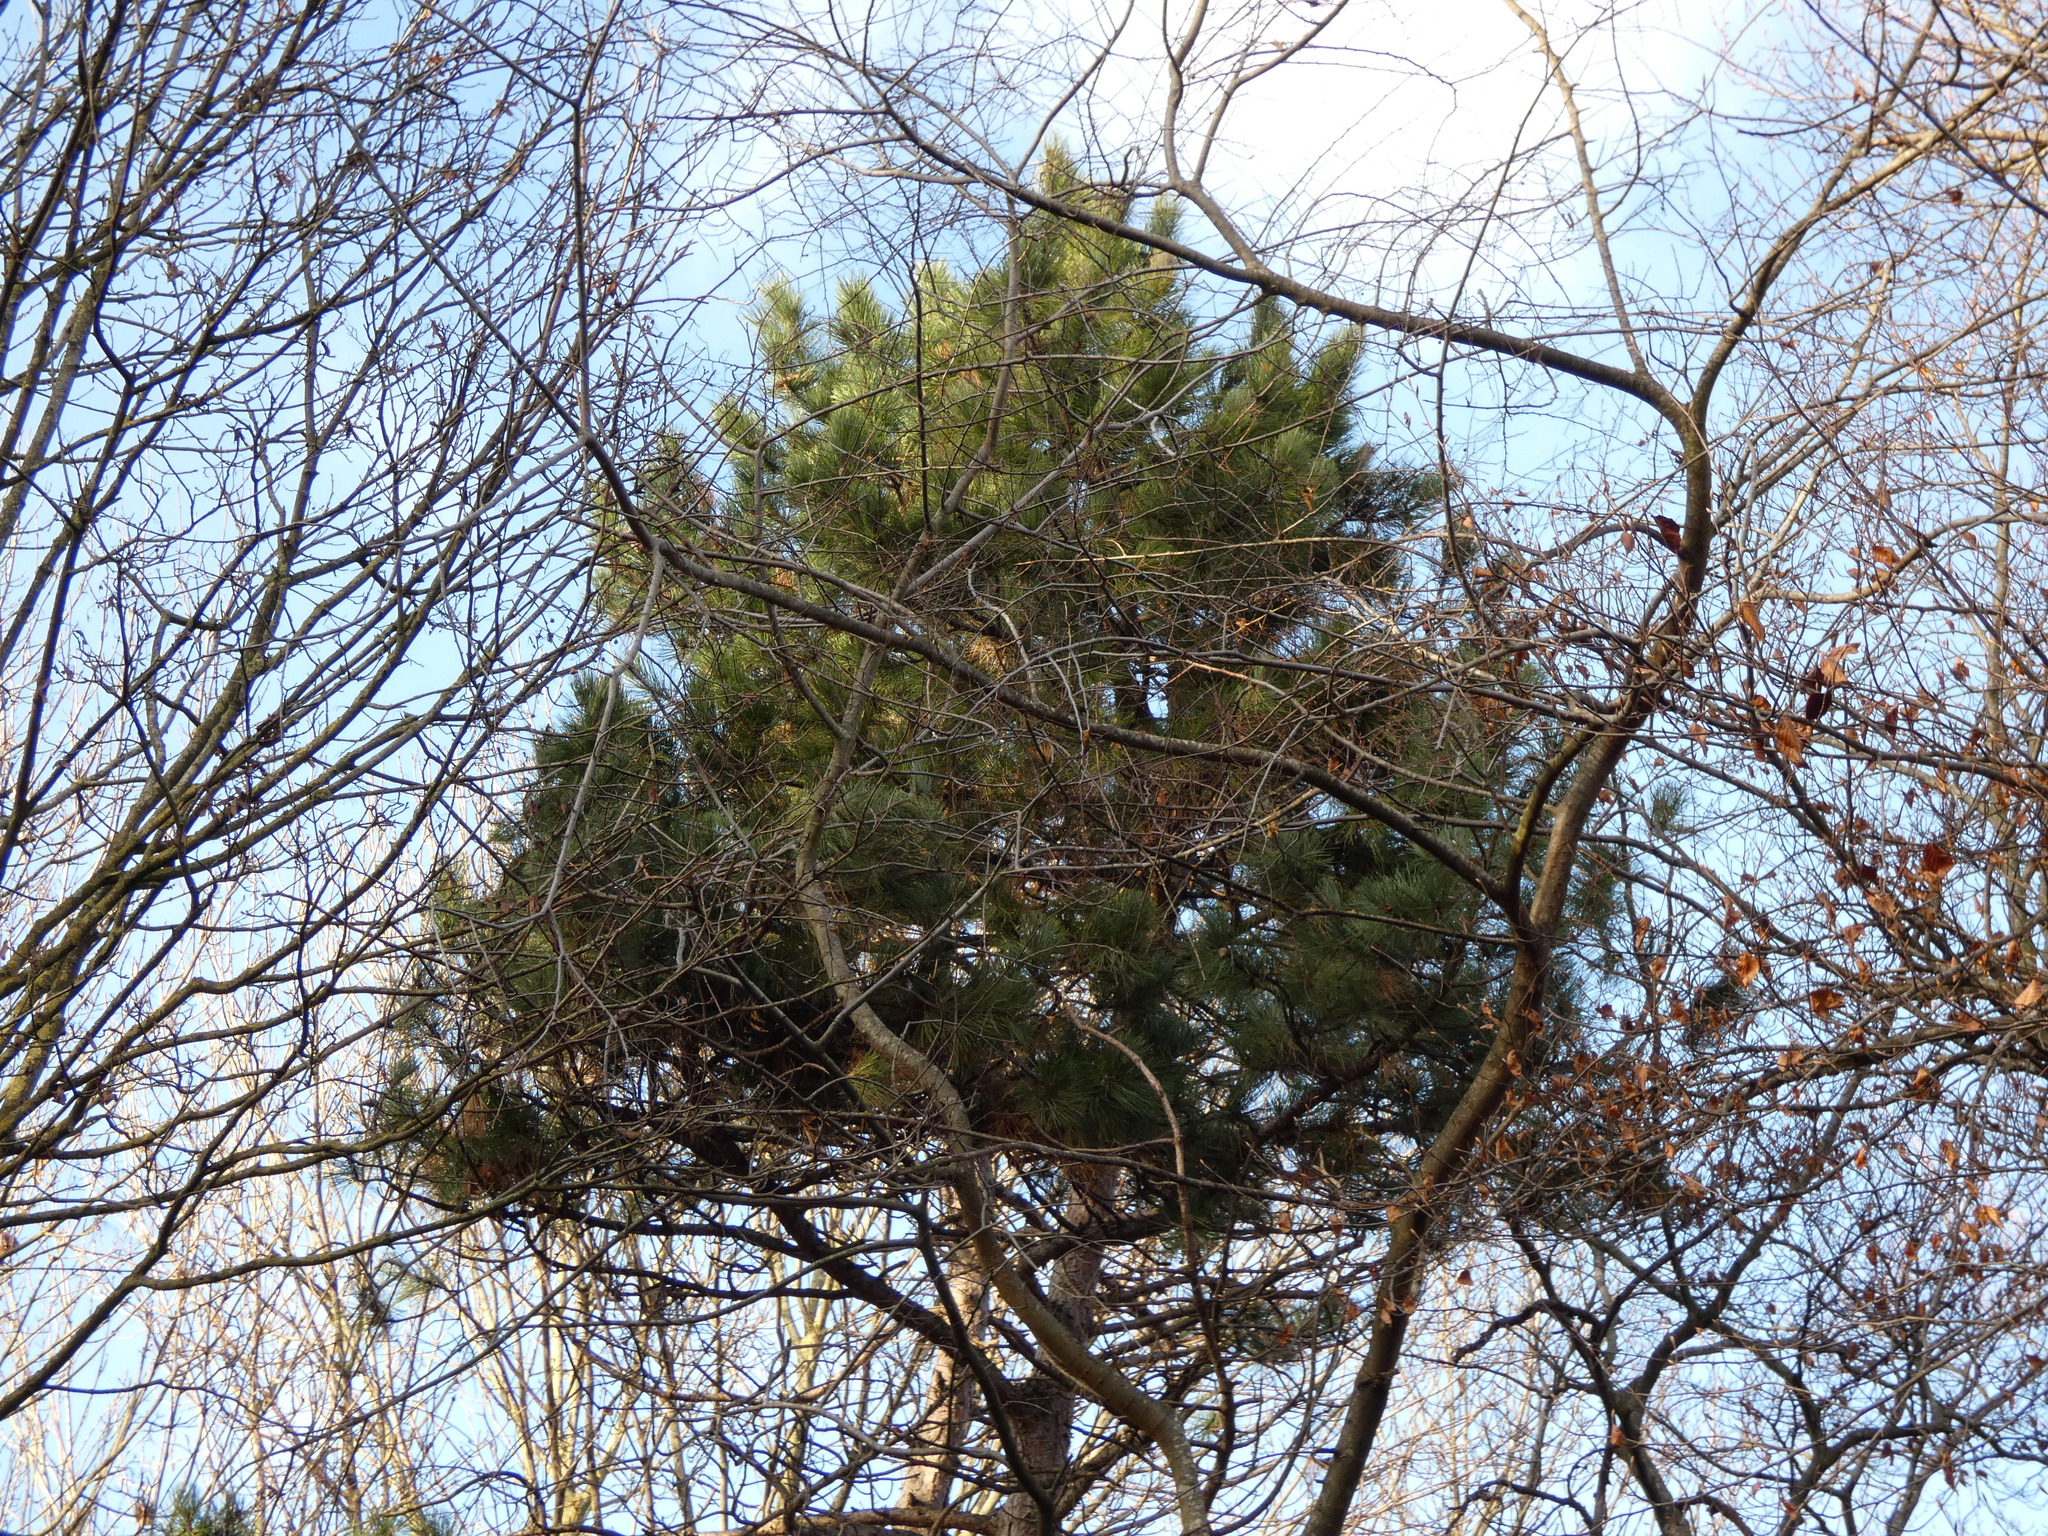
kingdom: Animalia
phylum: Arthropoda
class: Insecta
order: Lepidoptera
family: Notodontidae
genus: Thaumetopoea
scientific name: Thaumetopoea pityocampa
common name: Pine processionary
